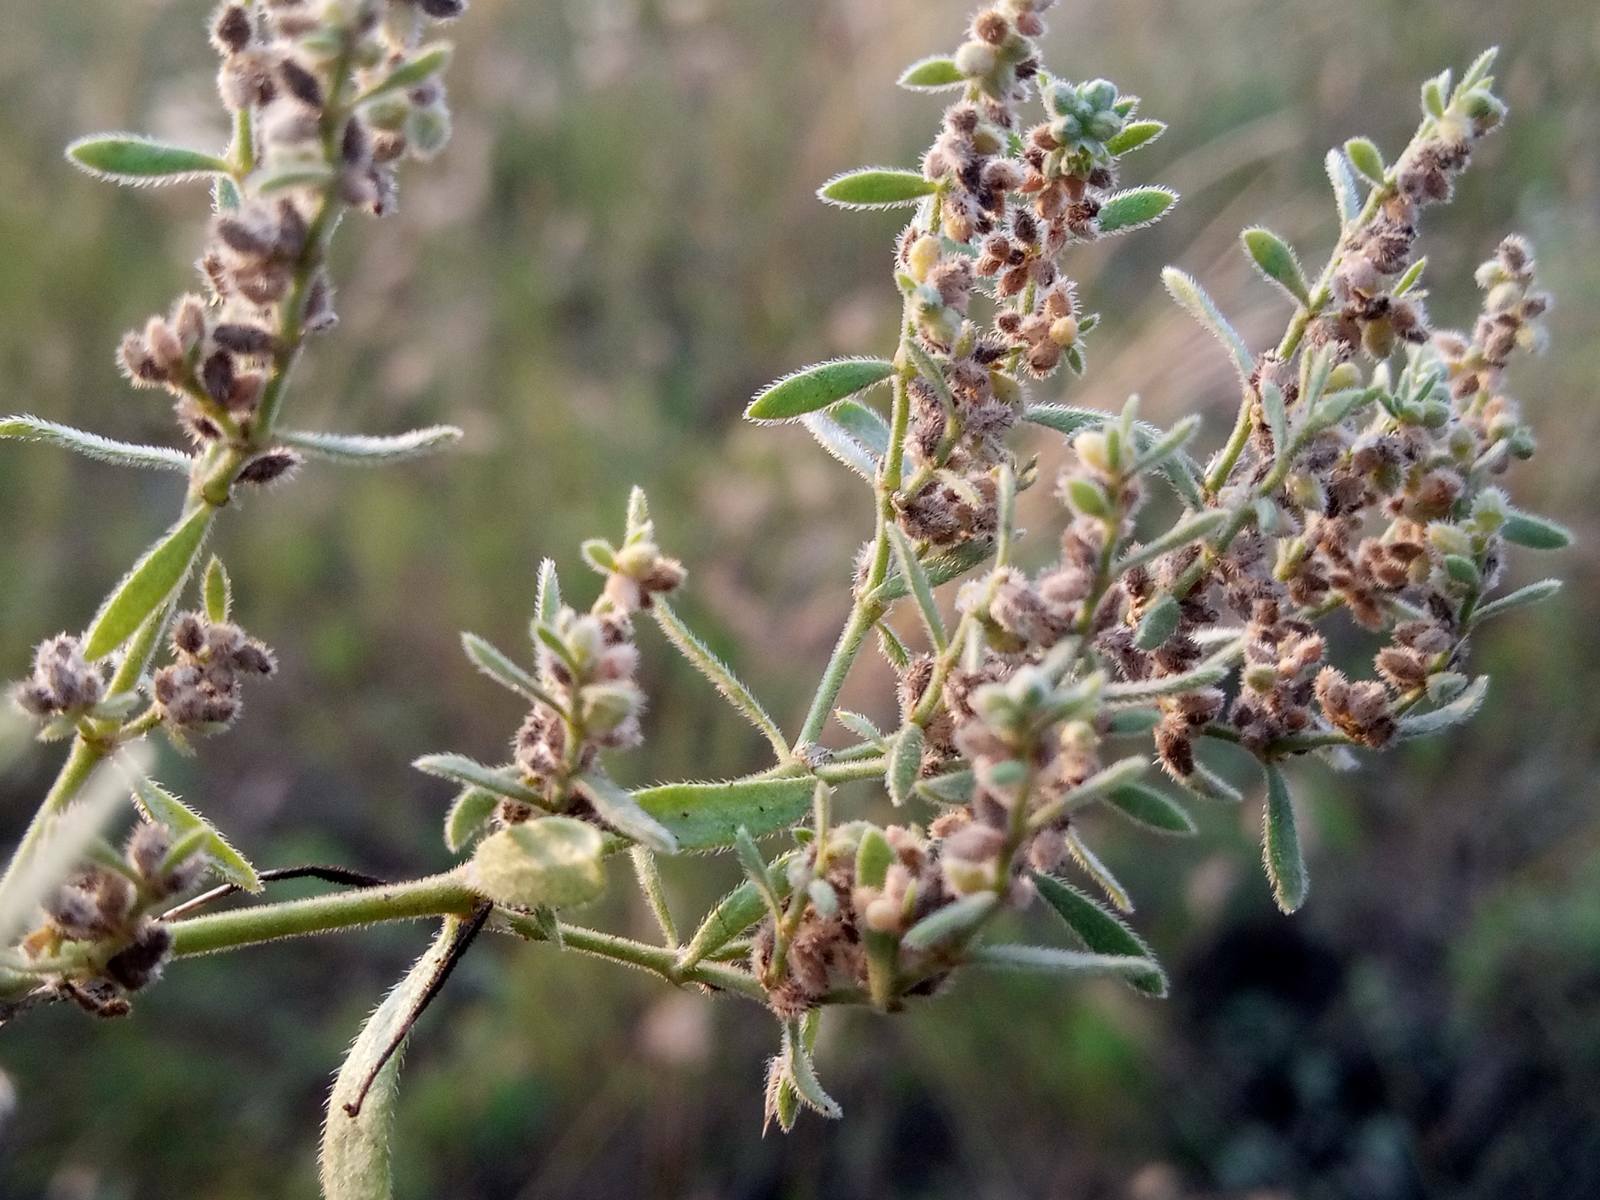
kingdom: Plantae
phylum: Tracheophyta
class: Magnoliopsida
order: Caryophyllales
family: Caryophyllaceae
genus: Herniaria
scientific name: Herniaria incana
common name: Gray rupturewort
